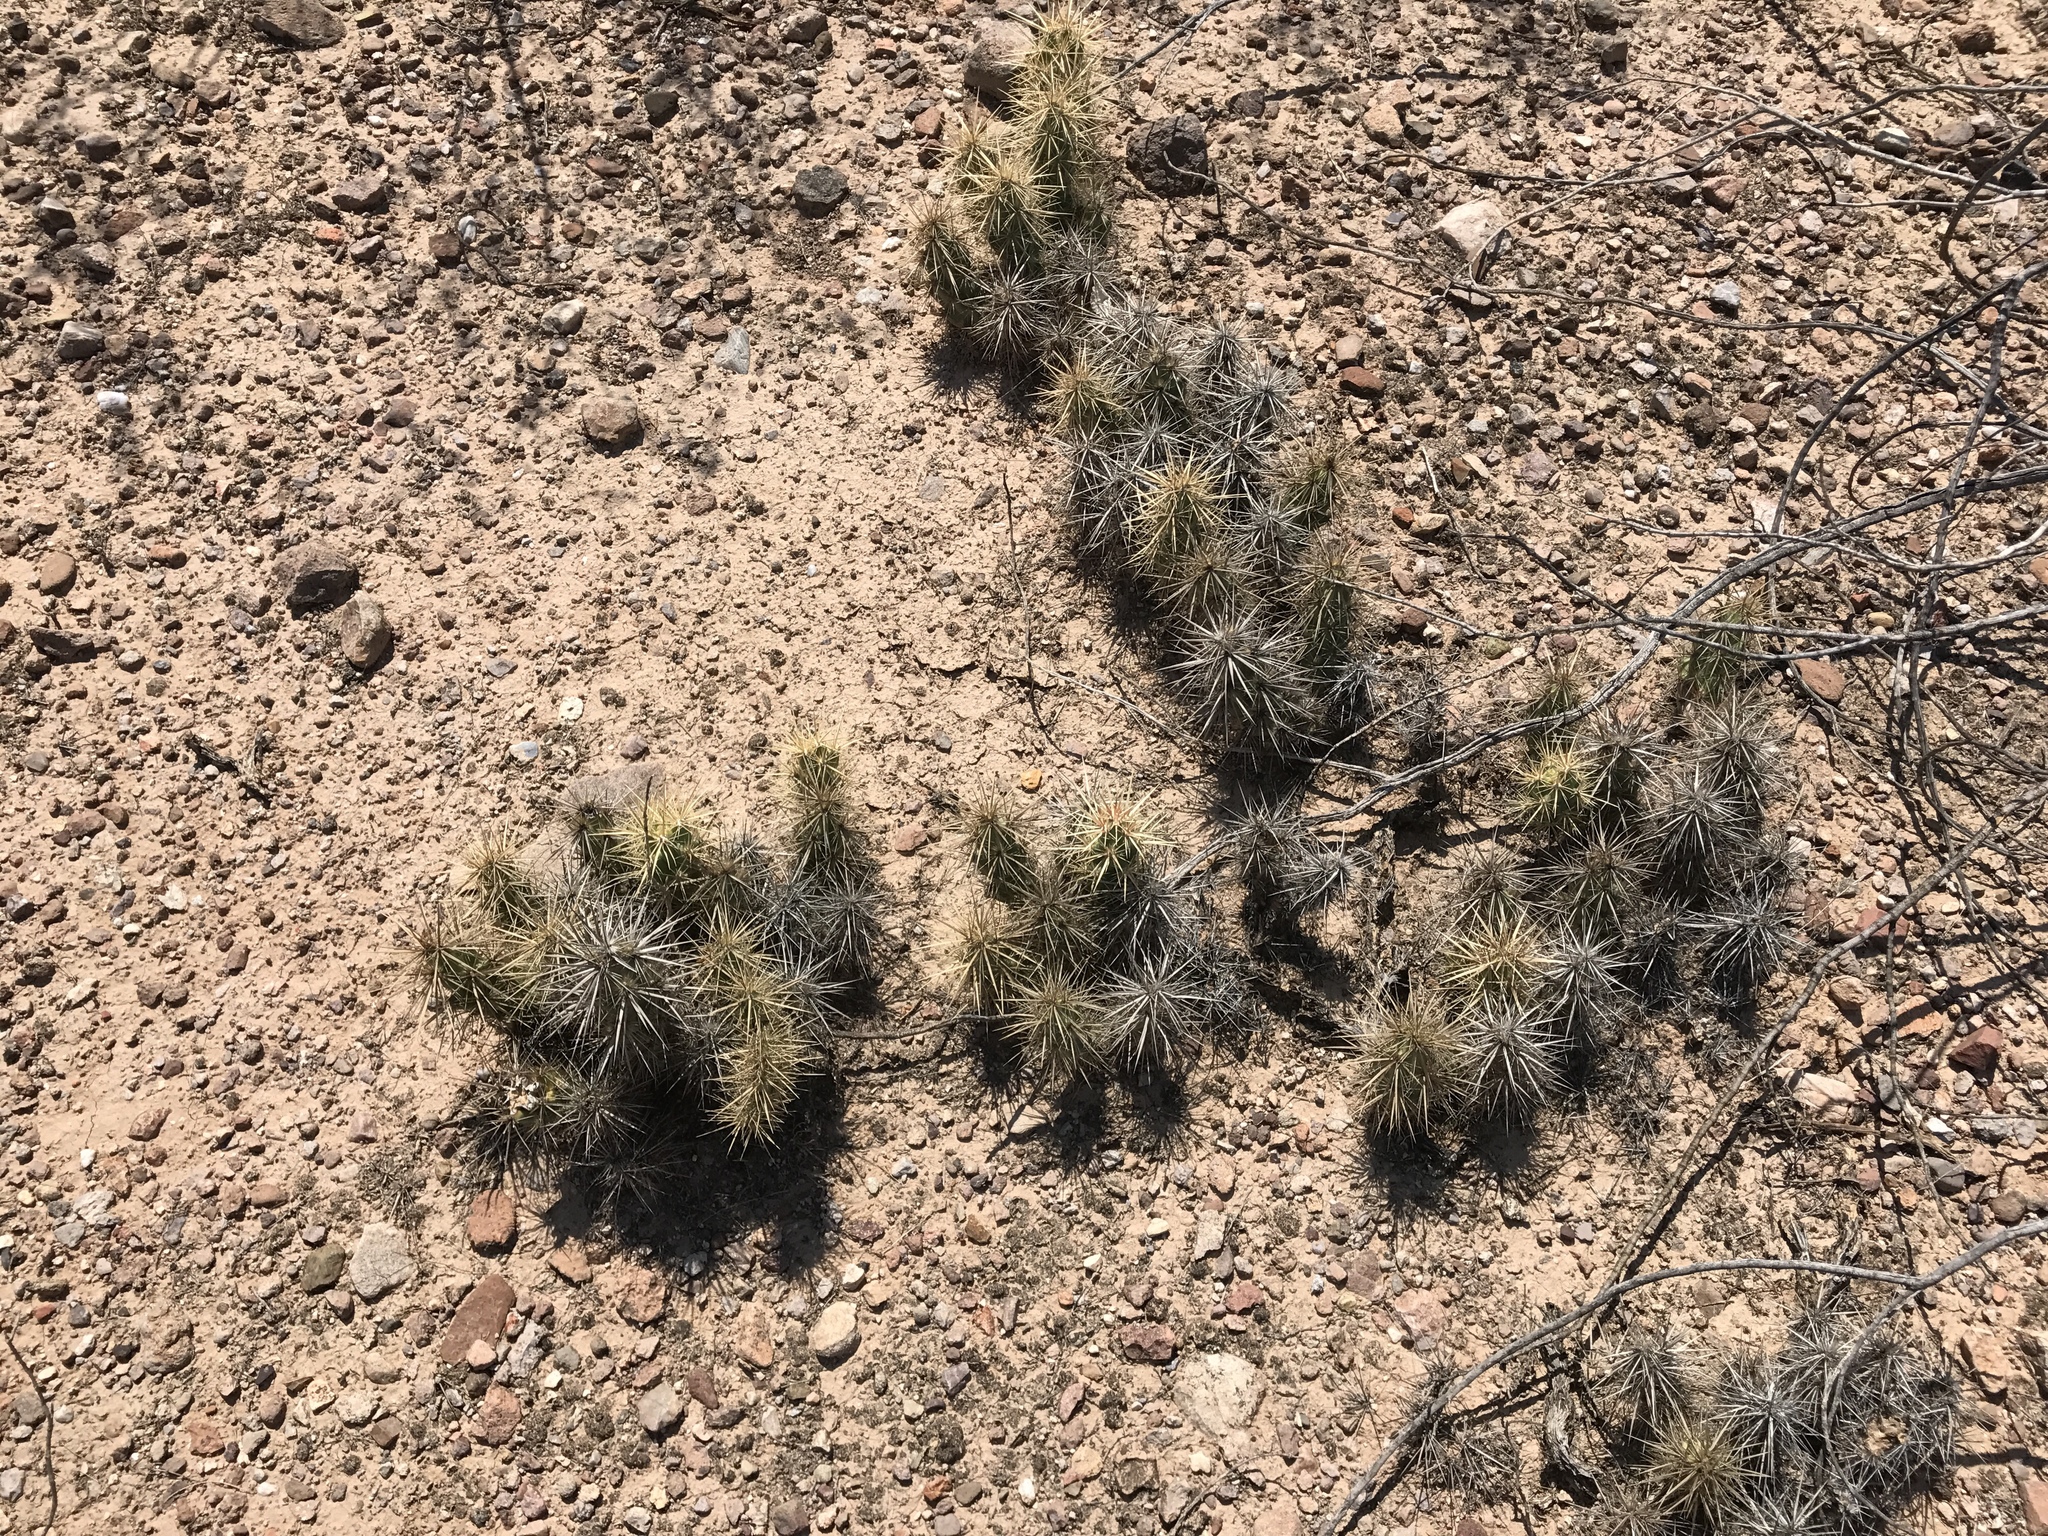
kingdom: Plantae
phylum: Tracheophyta
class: Magnoliopsida
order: Caryophyllales
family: Cactaceae
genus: Grusonia
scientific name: Grusonia emoryi
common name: Stanly's club cholla
